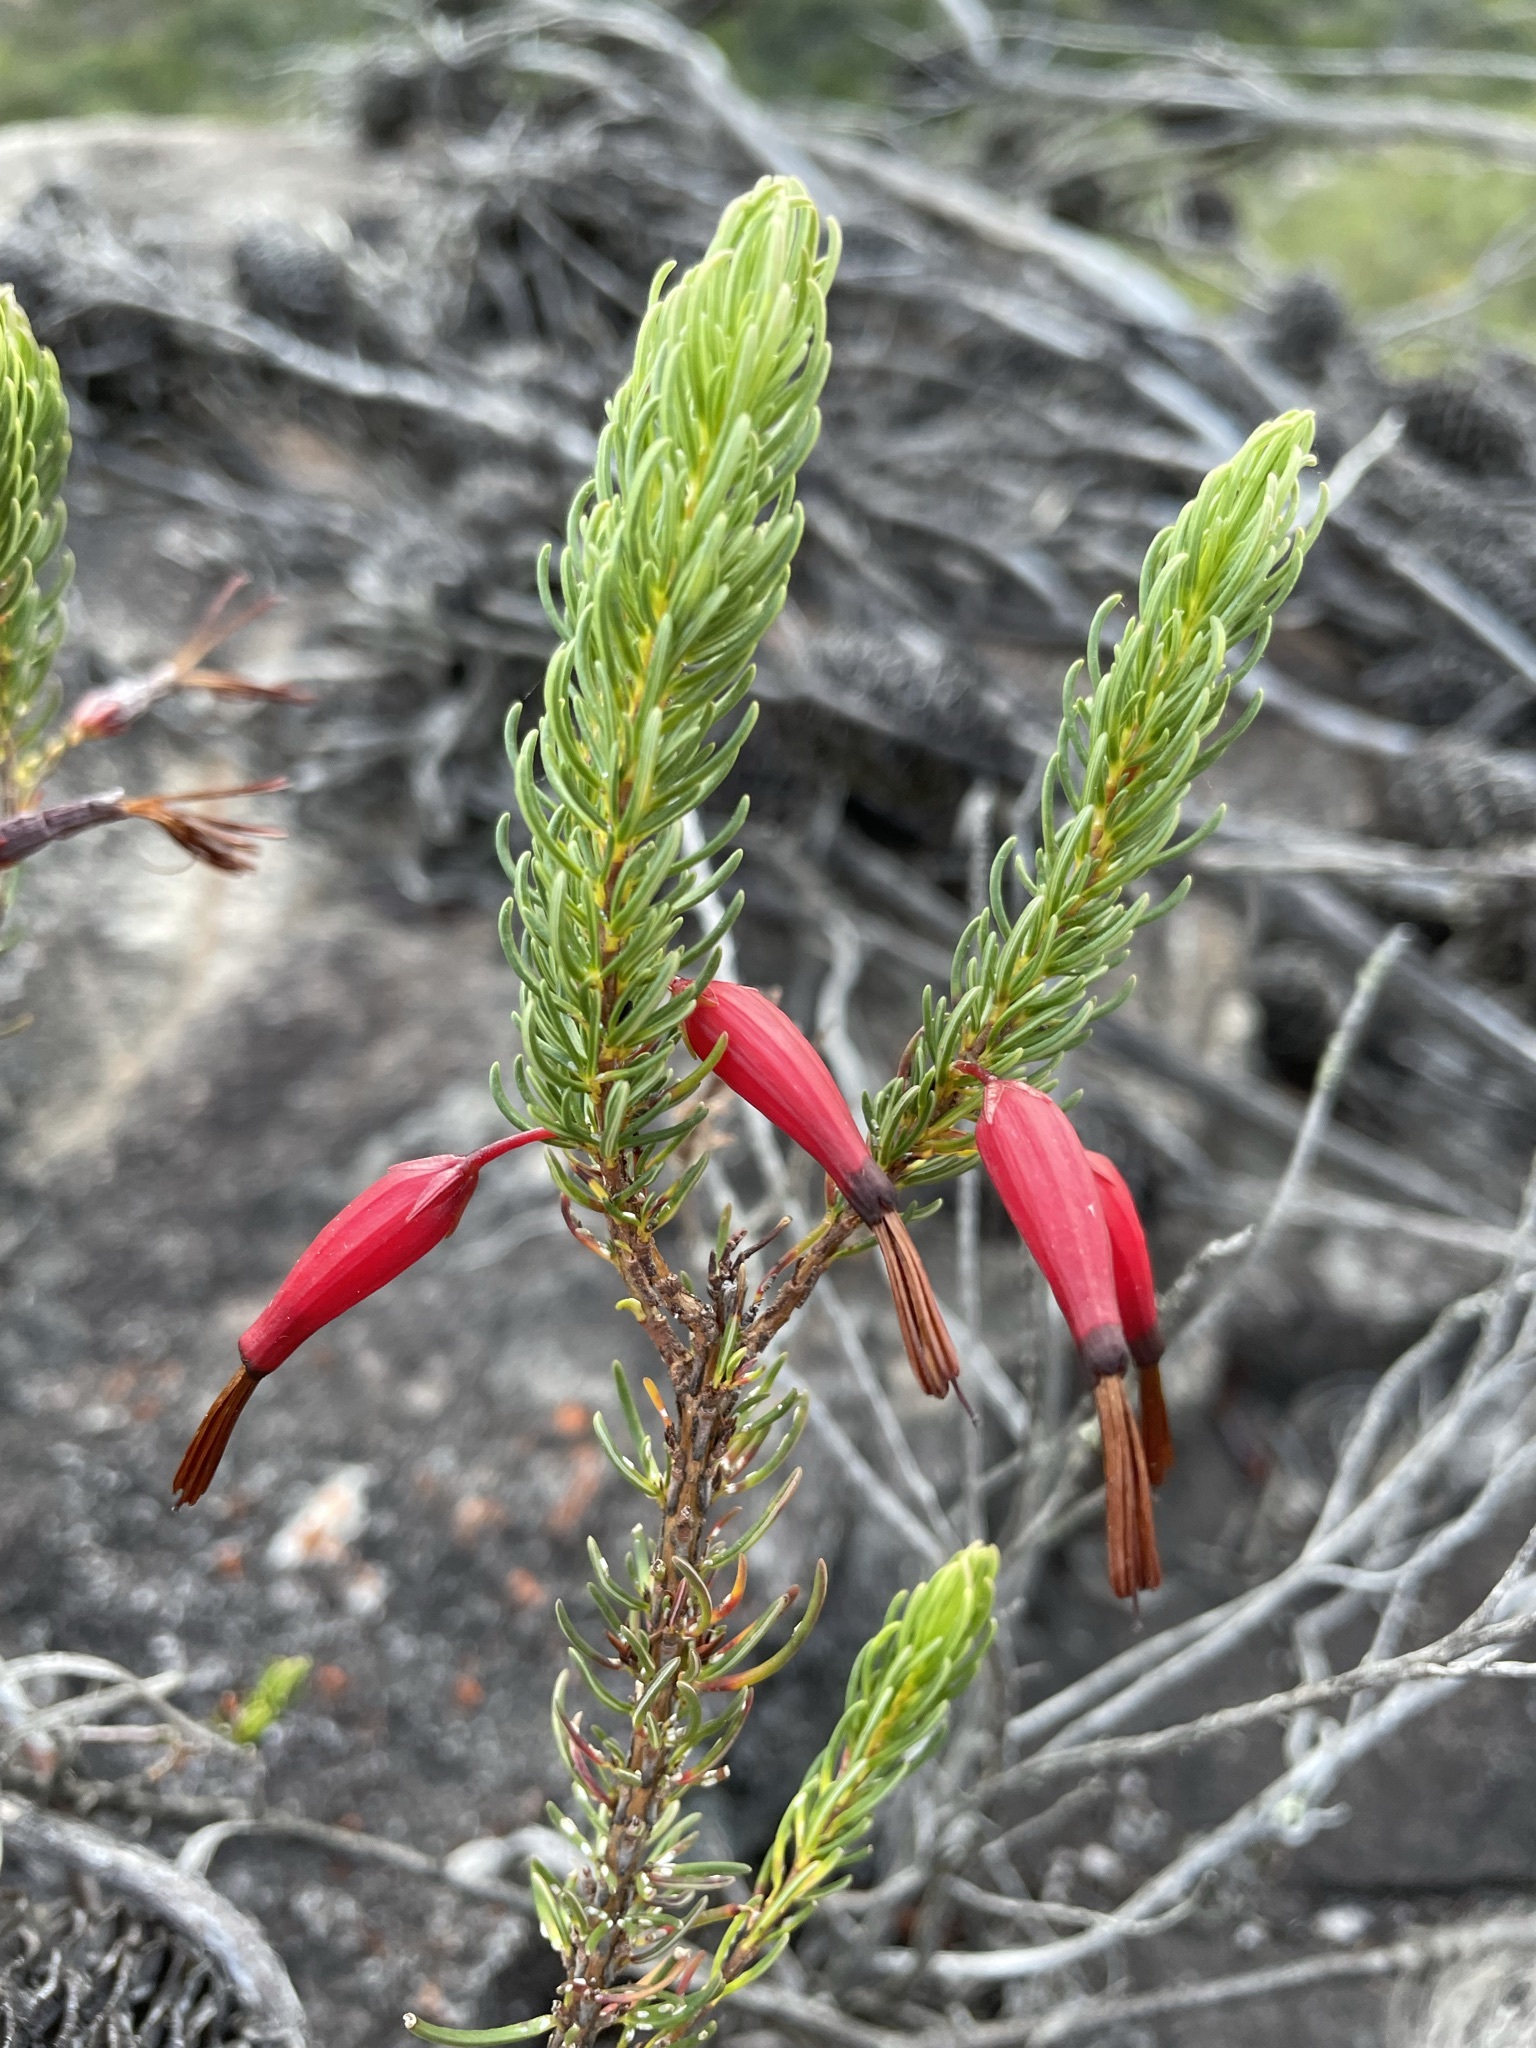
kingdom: Plantae
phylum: Tracheophyta
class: Magnoliopsida
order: Ericales
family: Ericaceae
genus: Erica
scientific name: Erica plukenetii
